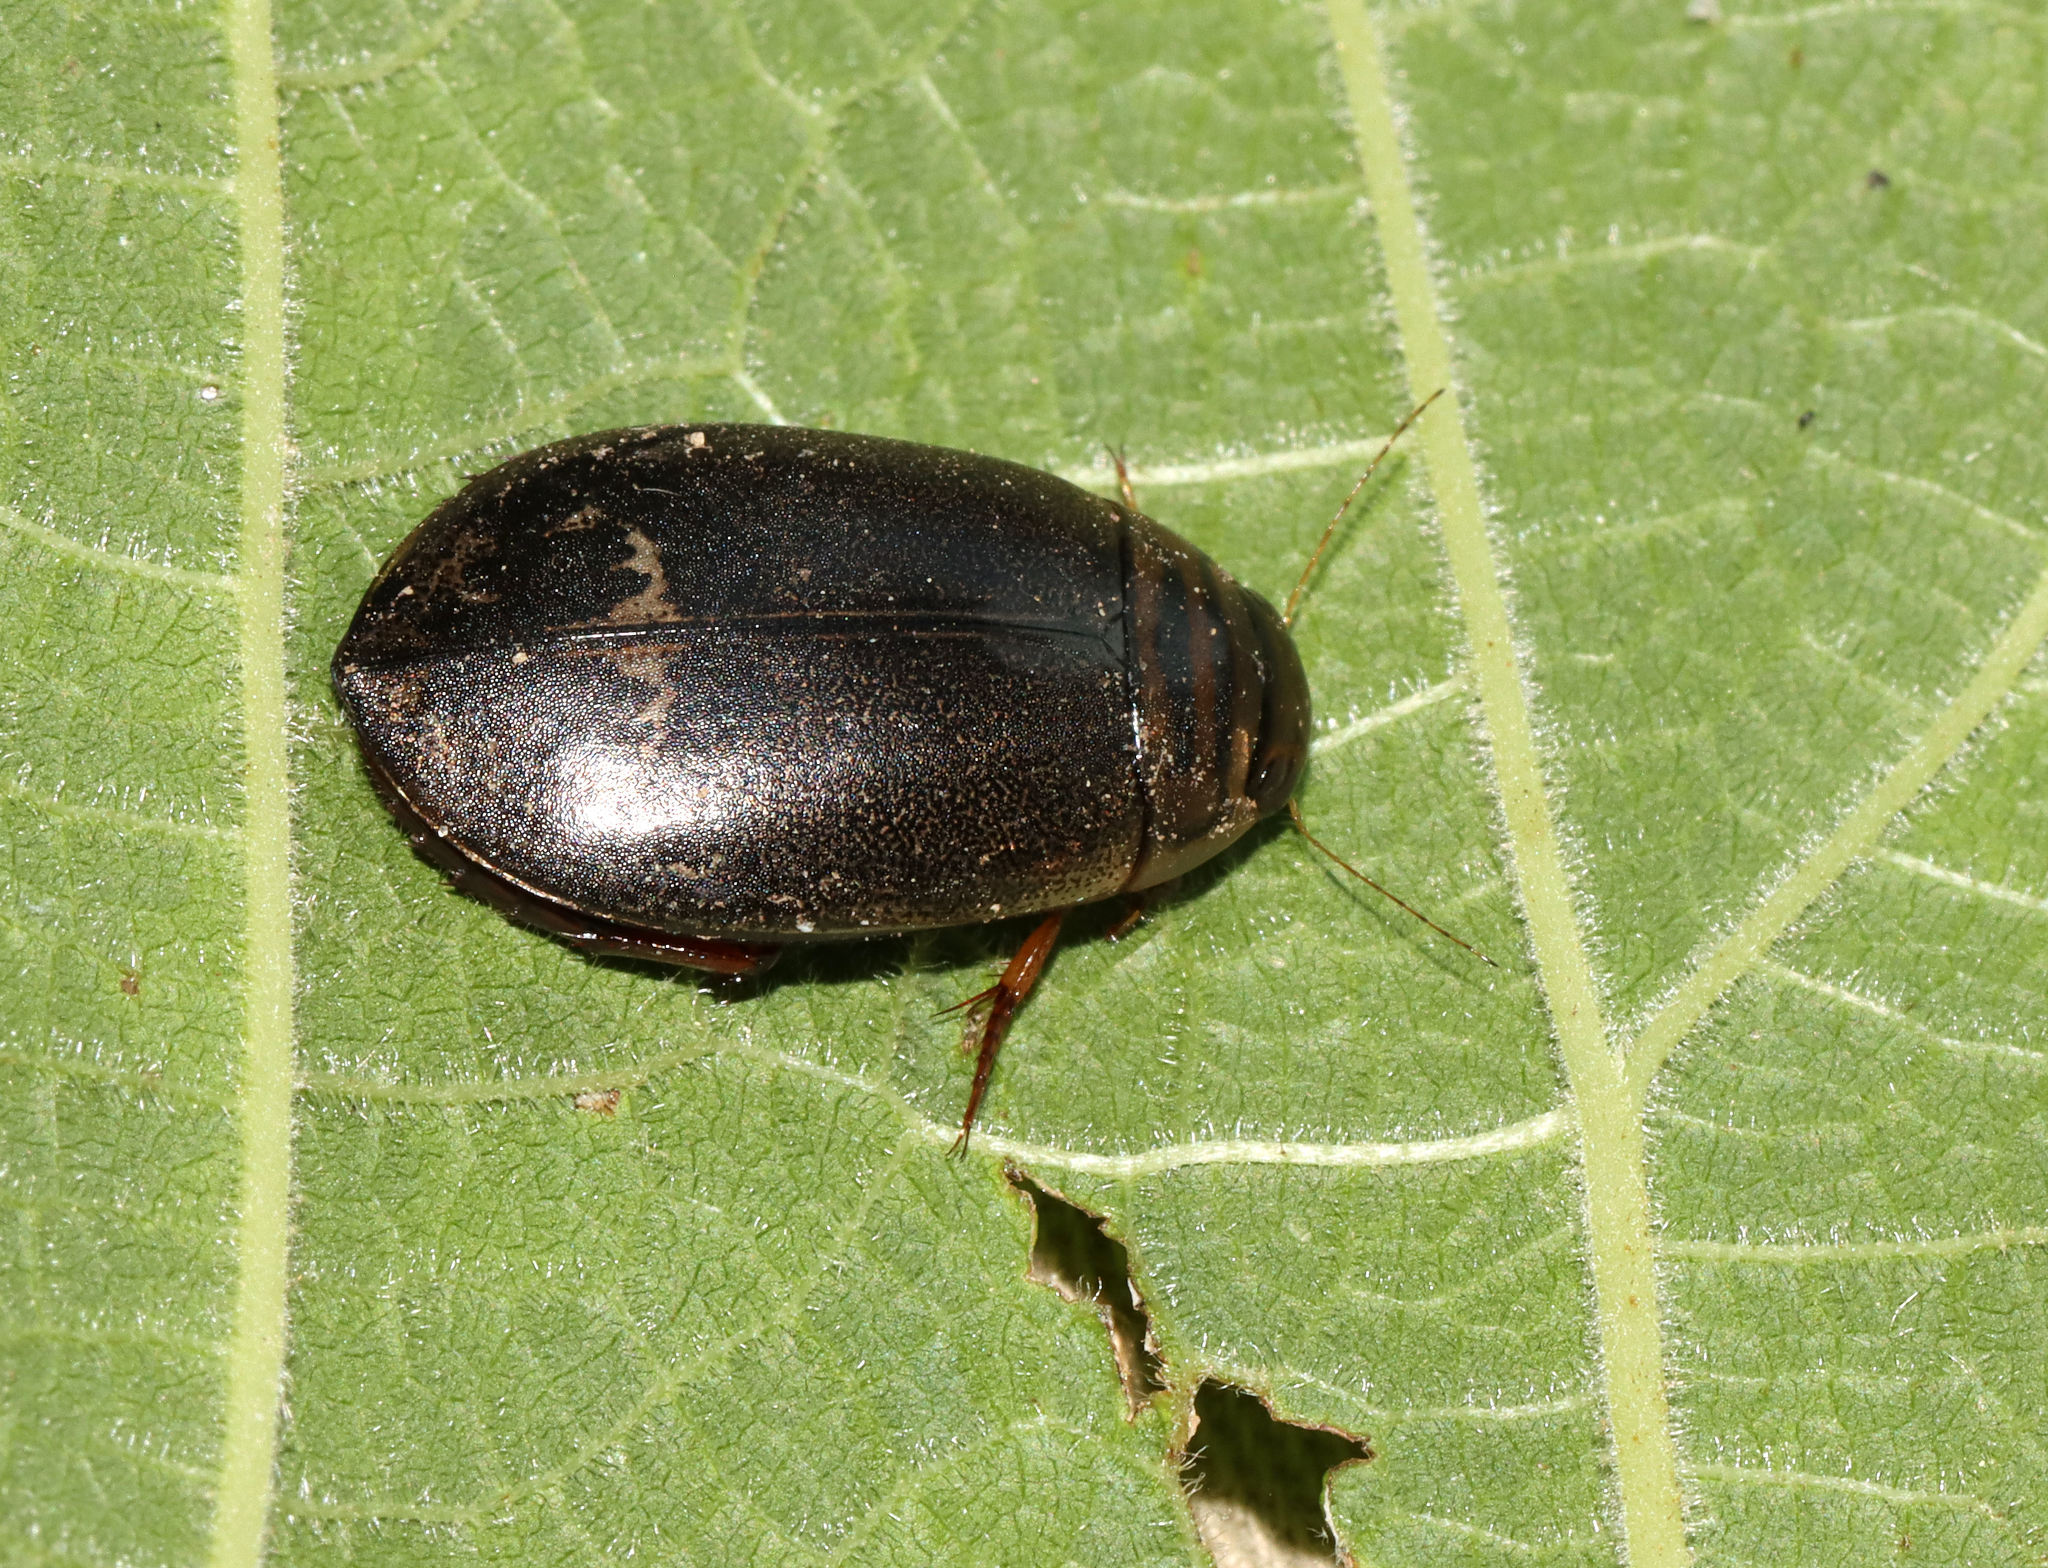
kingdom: Animalia
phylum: Arthropoda
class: Insecta
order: Coleoptera
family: Dytiscidae
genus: Acilius
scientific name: Acilius fraternus
